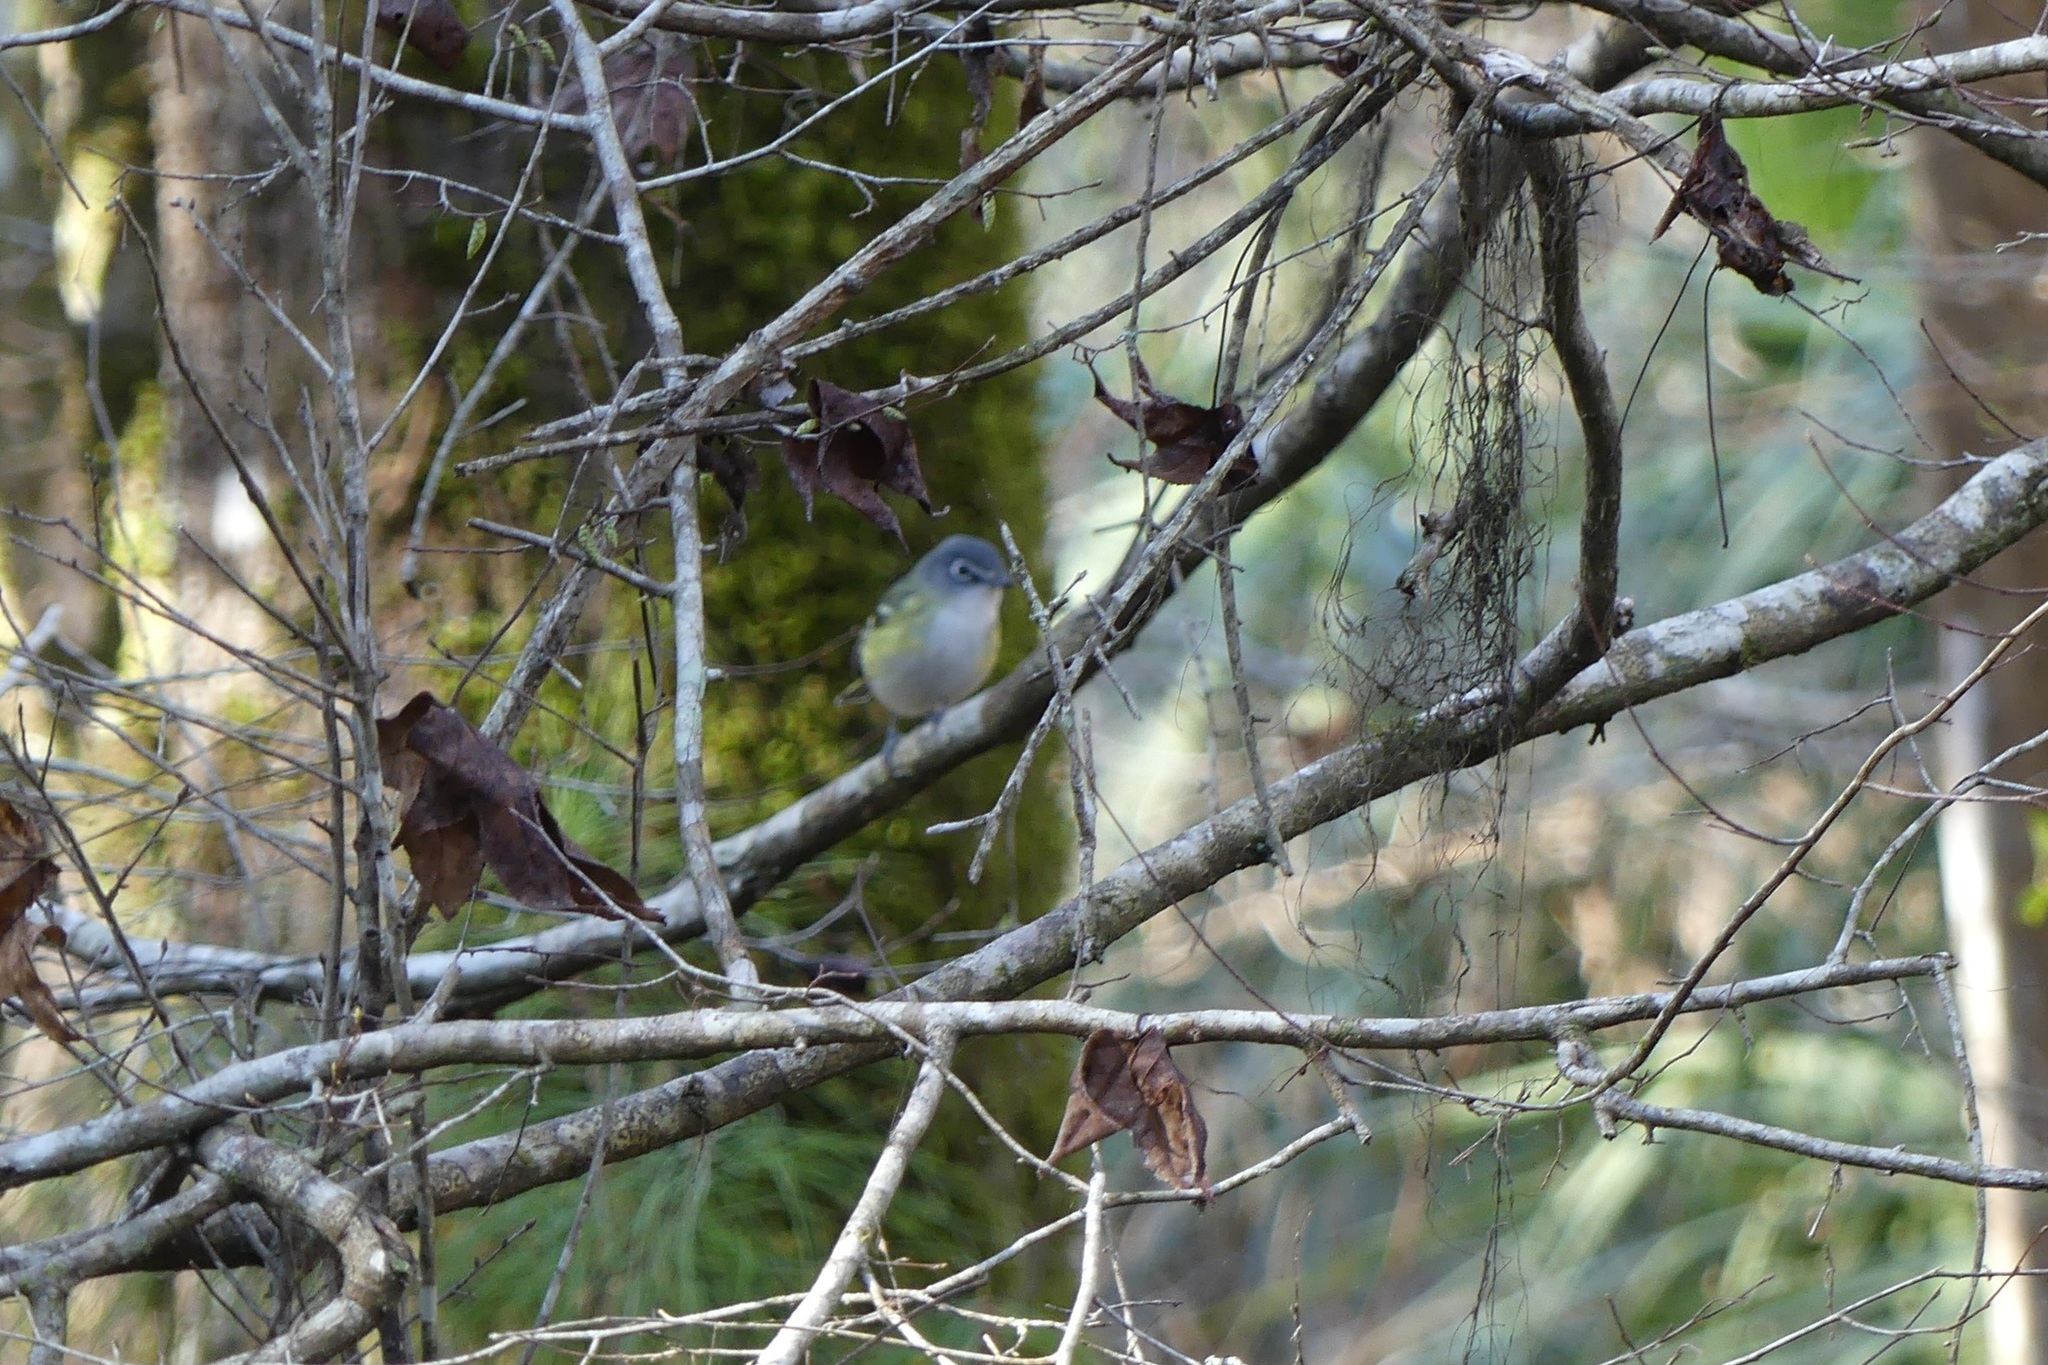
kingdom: Animalia
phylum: Chordata
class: Aves
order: Passeriformes
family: Vireonidae
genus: Vireo
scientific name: Vireo solitarius
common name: Blue-headed vireo
